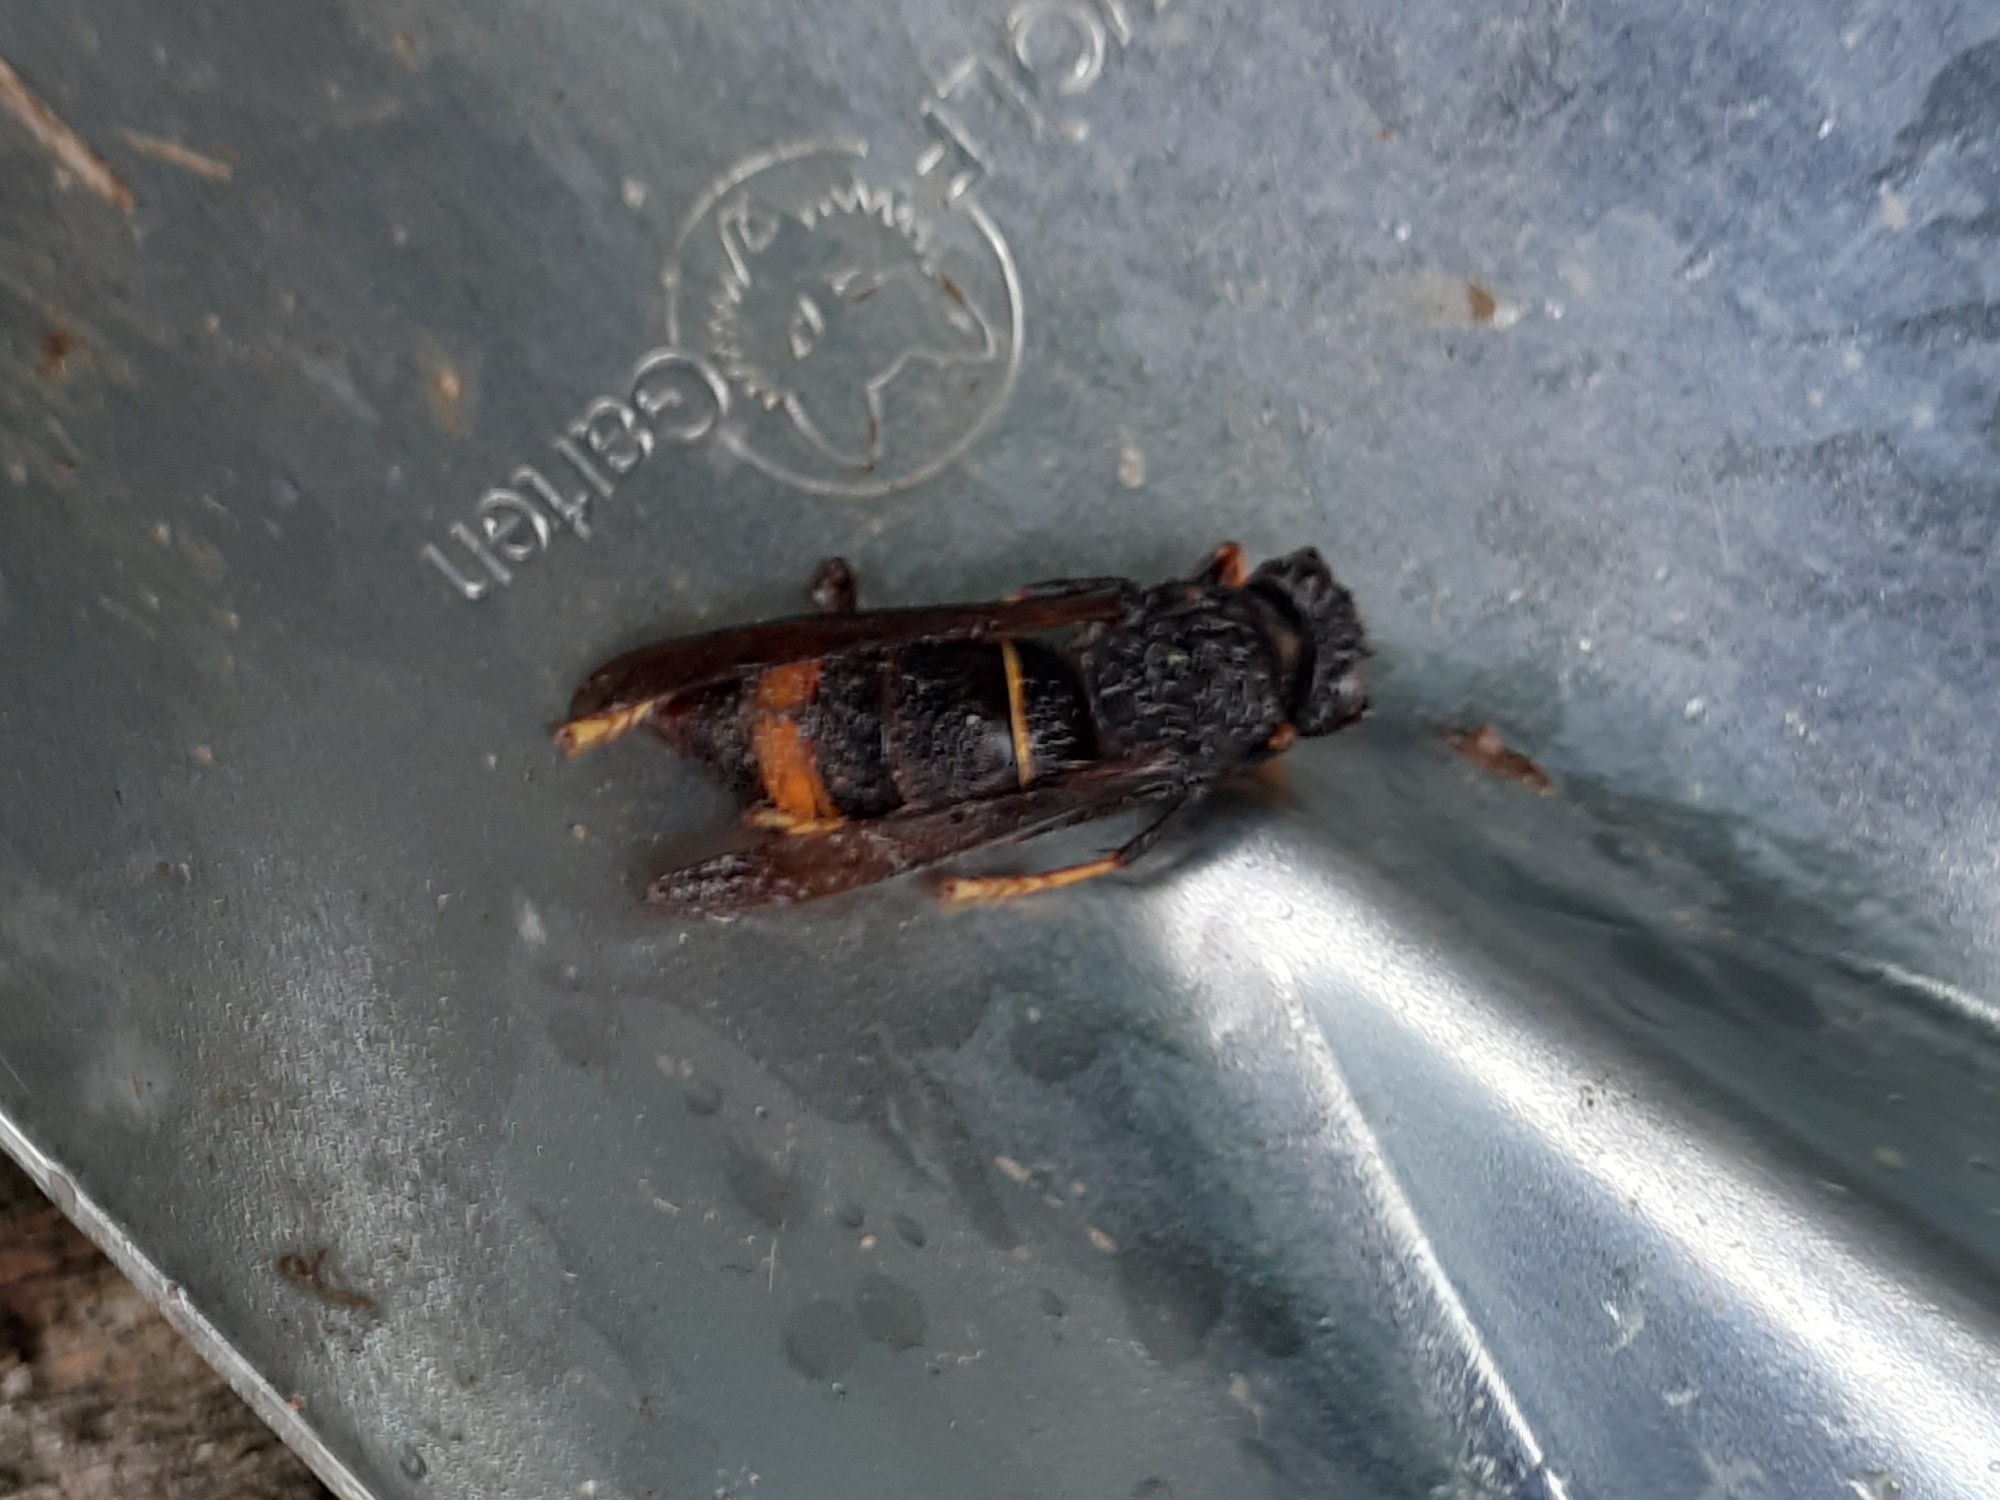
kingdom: Animalia
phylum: Arthropoda
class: Insecta
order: Hymenoptera
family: Vespidae
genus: Vespa
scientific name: Vespa velutina
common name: Asian hornet
